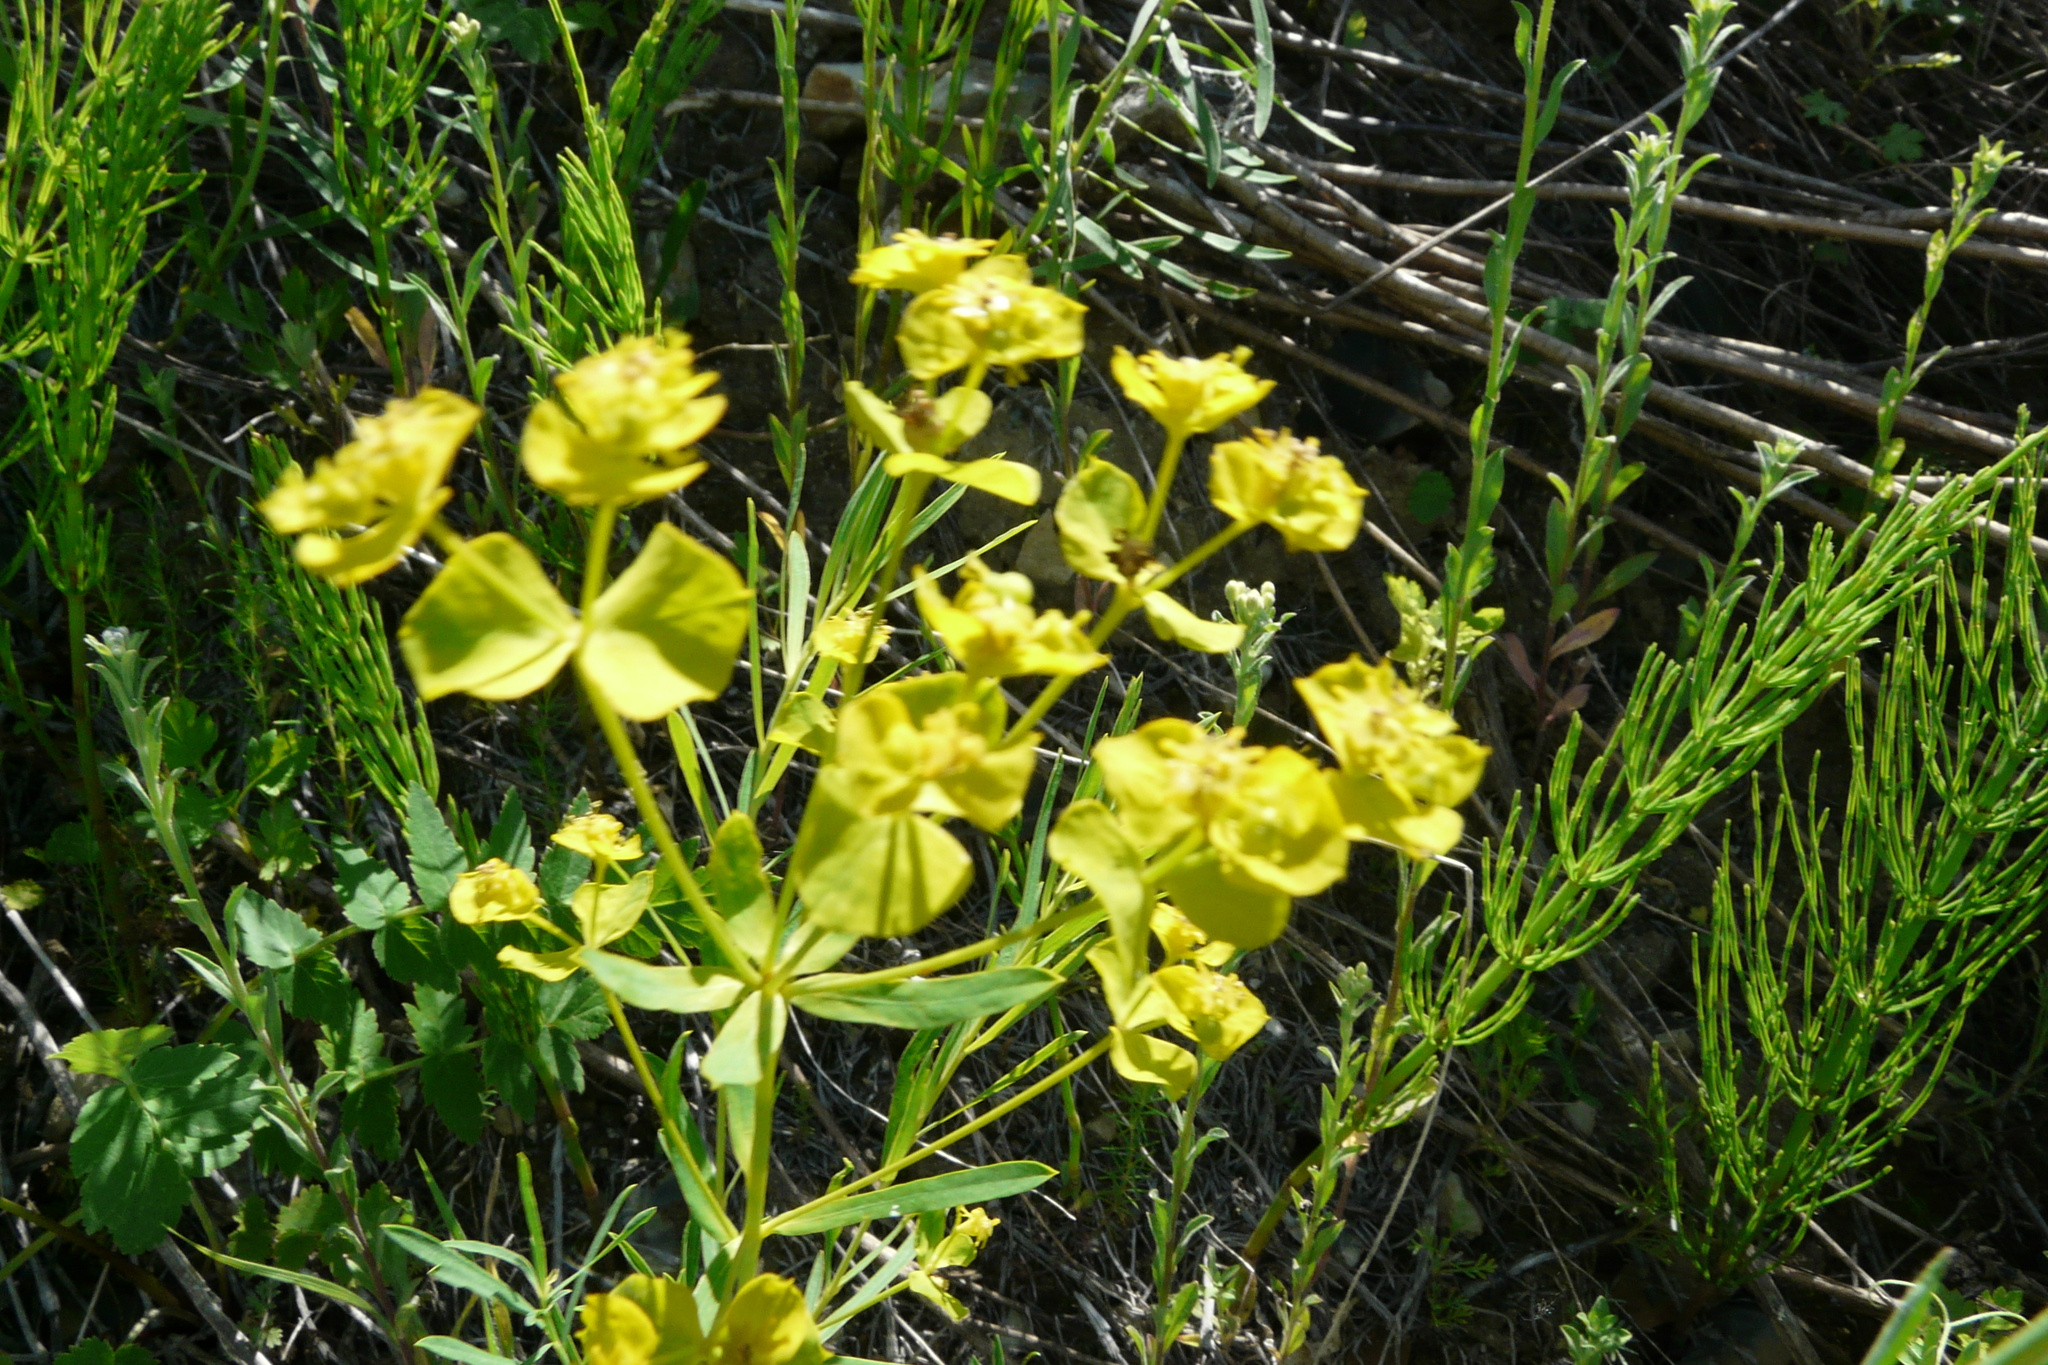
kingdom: Plantae
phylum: Tracheophyta
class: Magnoliopsida
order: Malpighiales
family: Euphorbiaceae
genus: Euphorbia
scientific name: Euphorbia virgata
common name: Leafy spurge
